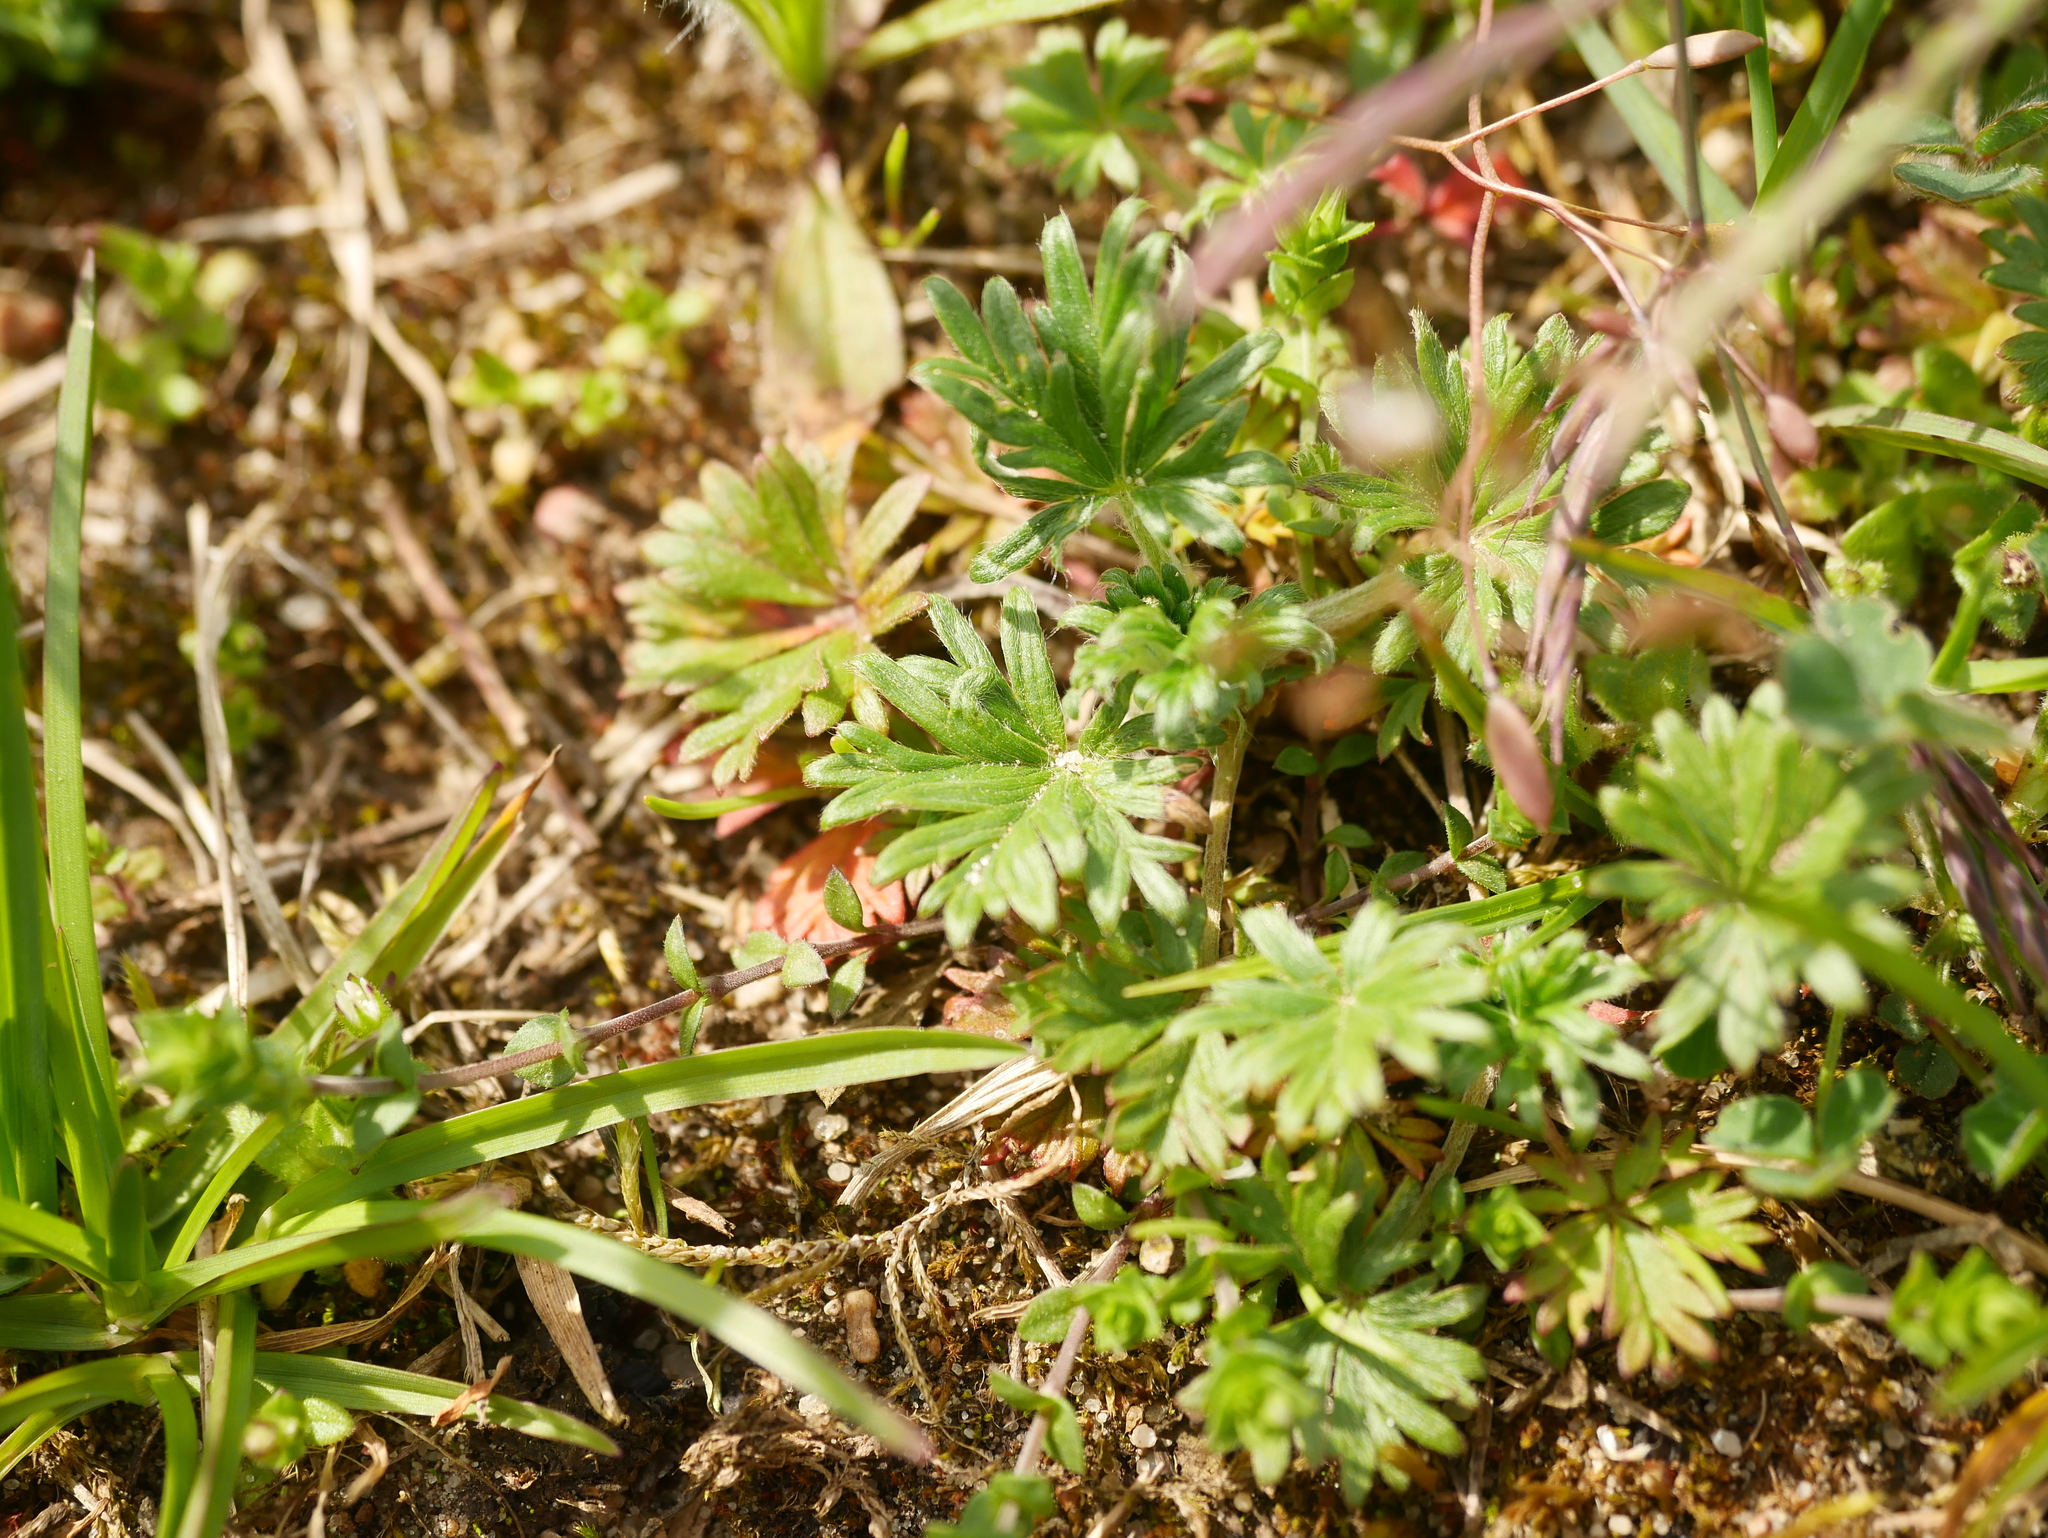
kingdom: Plantae
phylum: Tracheophyta
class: Magnoliopsida
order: Rosales
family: Rosaceae
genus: Potentilla
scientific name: Potentilla argentea
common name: Hoary cinquefoil
